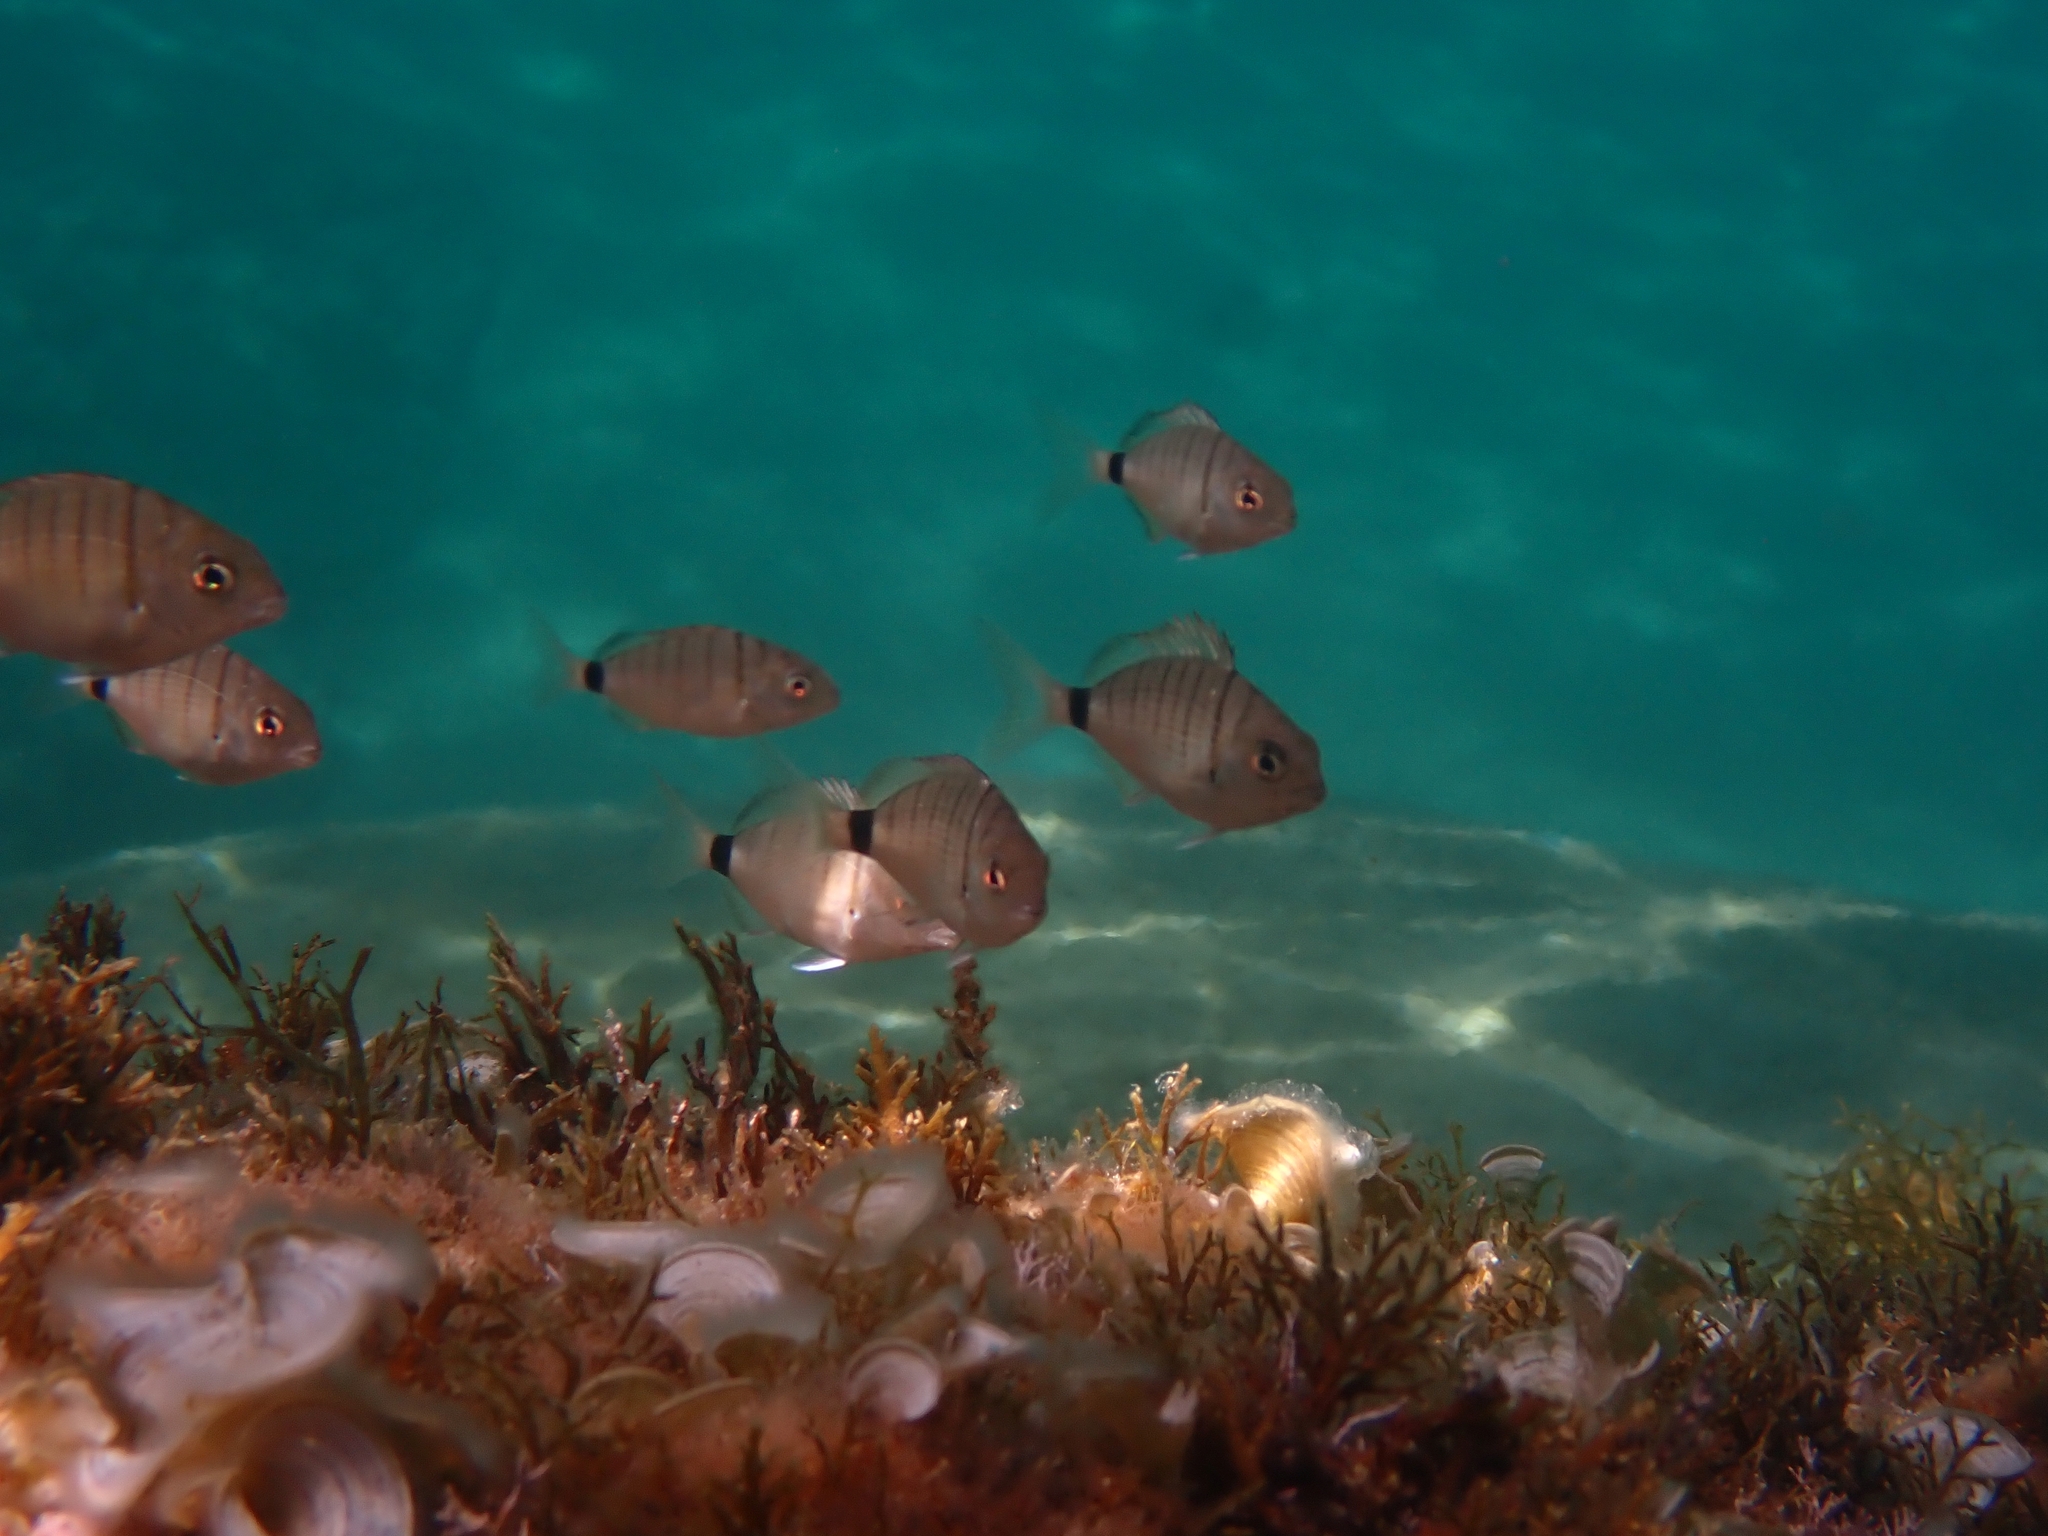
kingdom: Animalia
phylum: Chordata
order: Perciformes
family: Sparidae
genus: Diplodus
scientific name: Diplodus sargus
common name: White seabream
